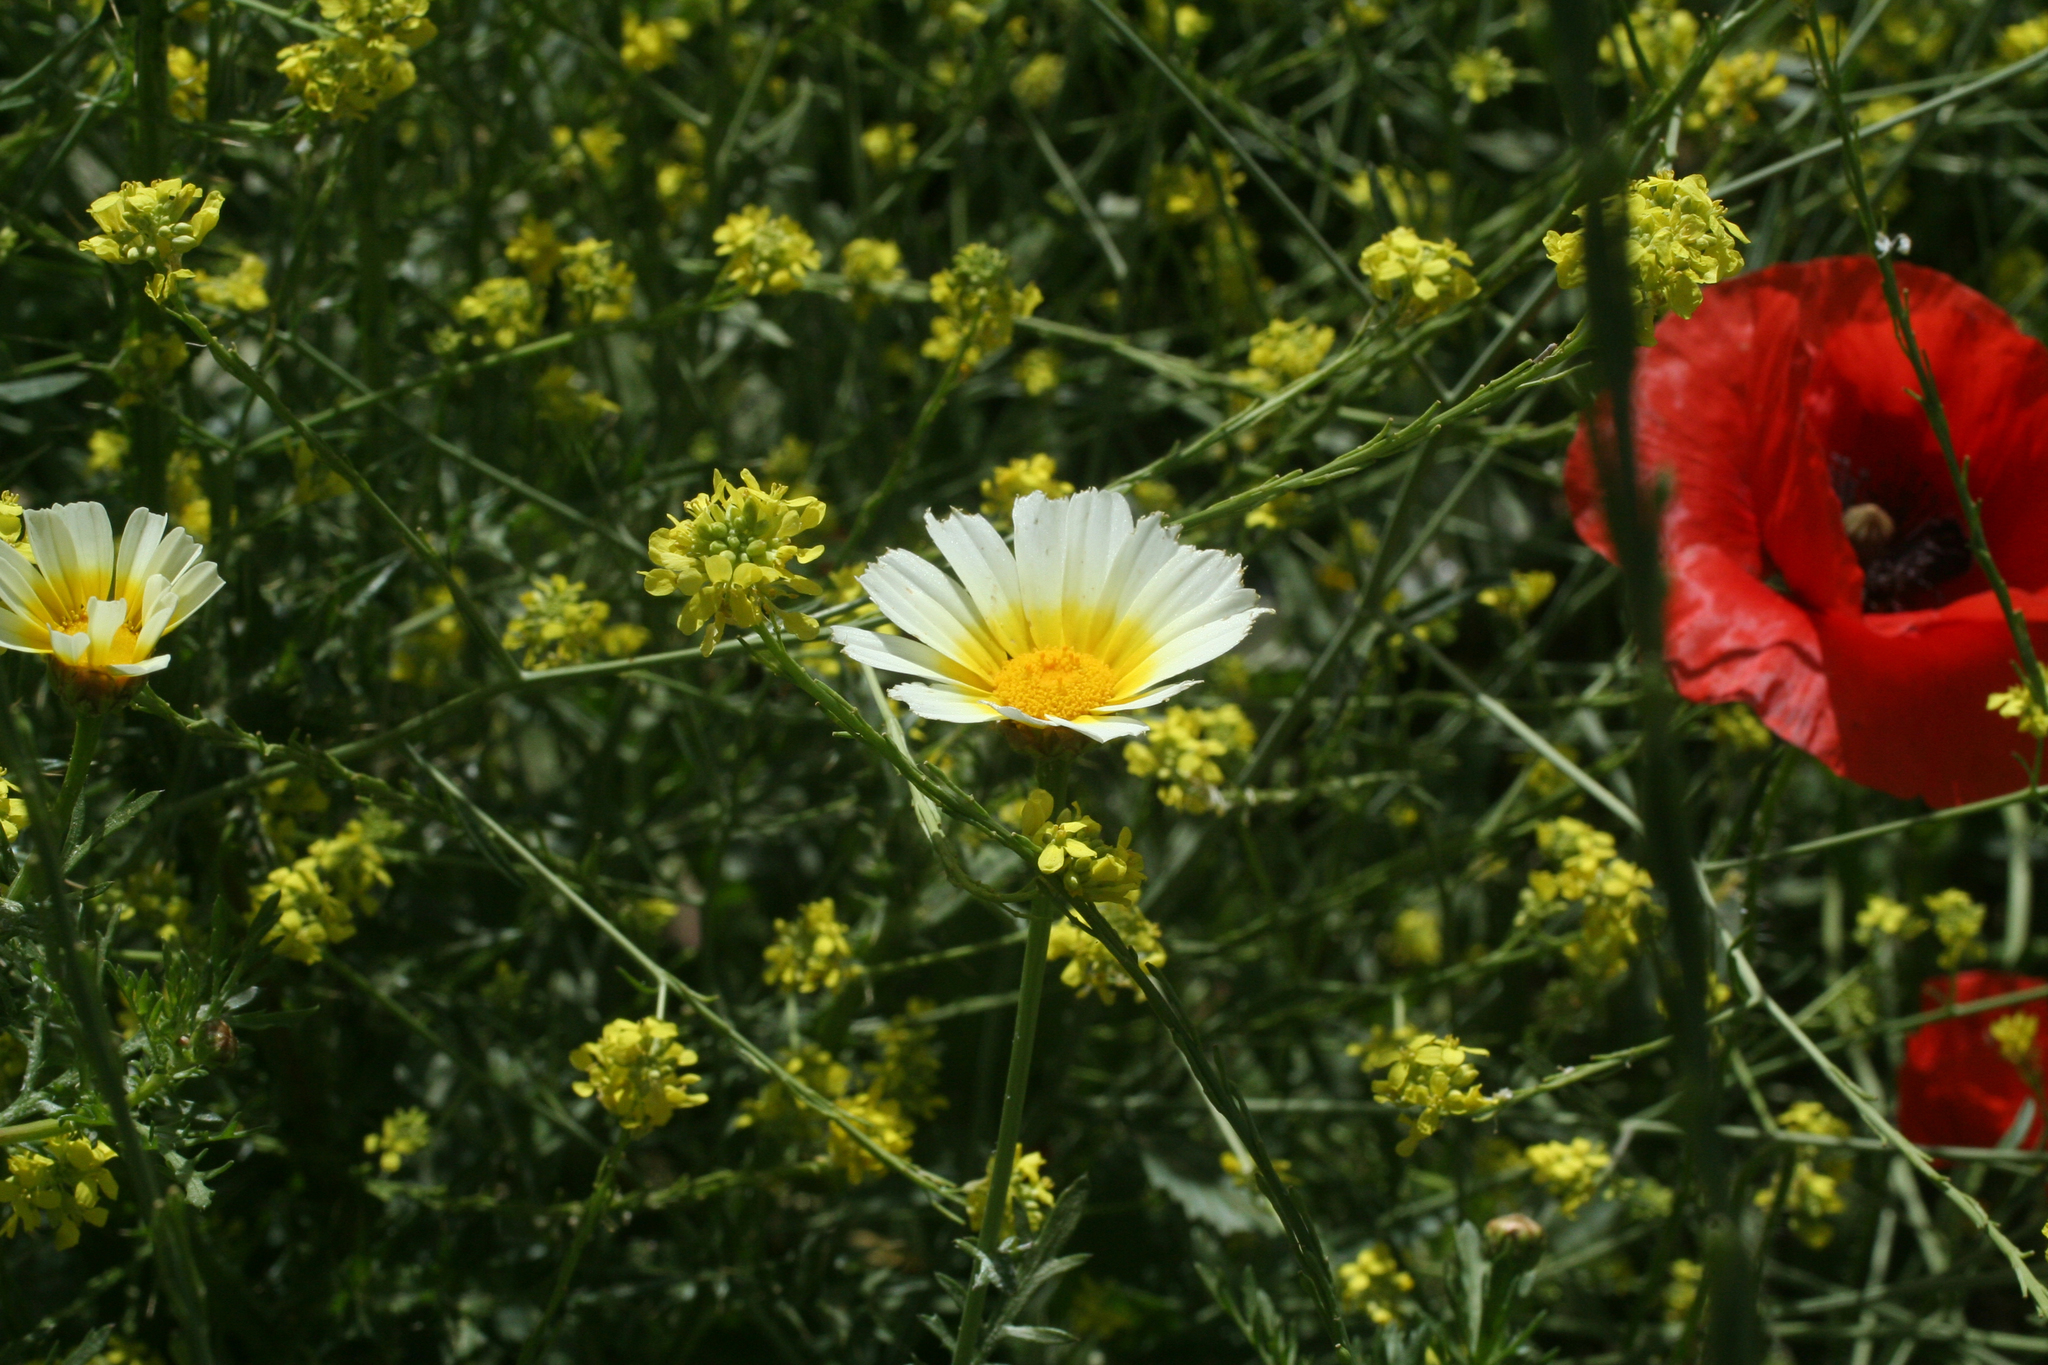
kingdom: Plantae
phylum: Tracheophyta
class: Magnoliopsida
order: Asterales
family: Asteraceae
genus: Glebionis
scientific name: Glebionis coronaria
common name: Crowndaisy
